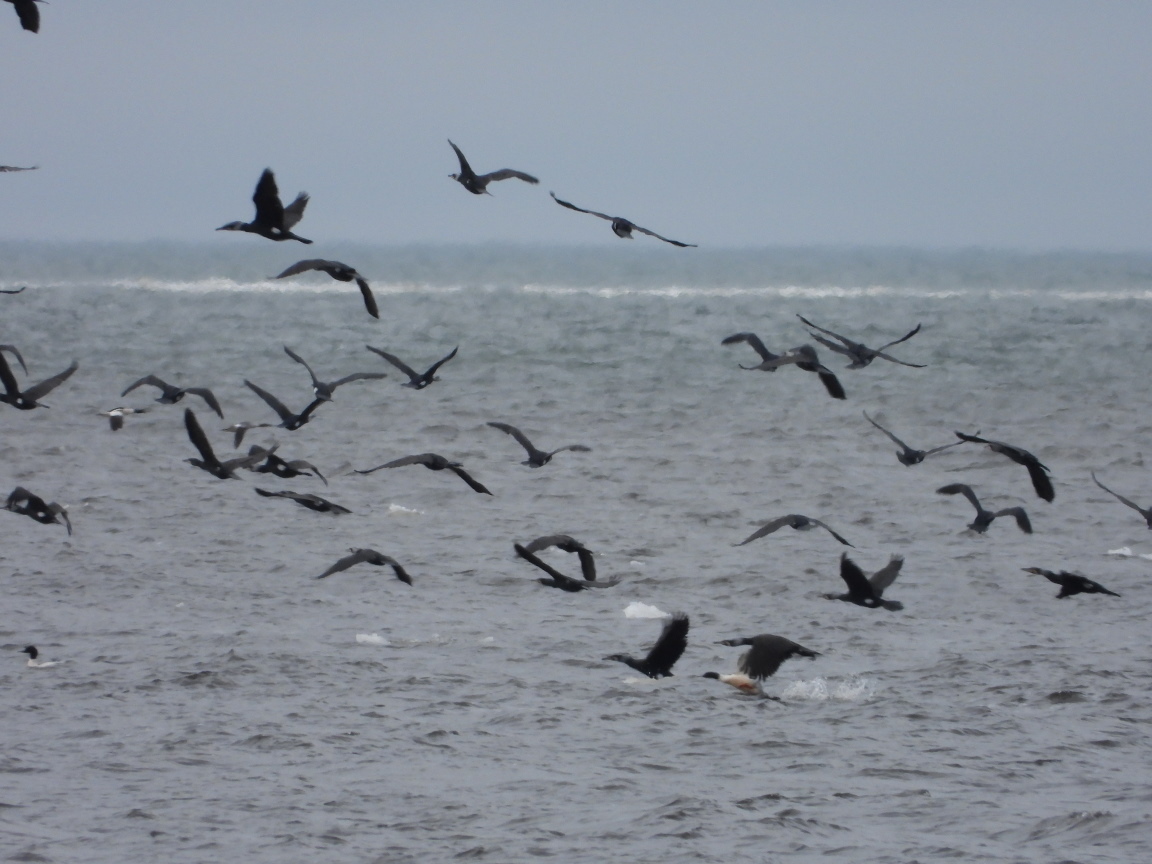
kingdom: Animalia
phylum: Chordata
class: Aves
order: Suliformes
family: Phalacrocoracidae
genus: Phalacrocorax
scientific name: Phalacrocorax carbo
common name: Great cormorant
